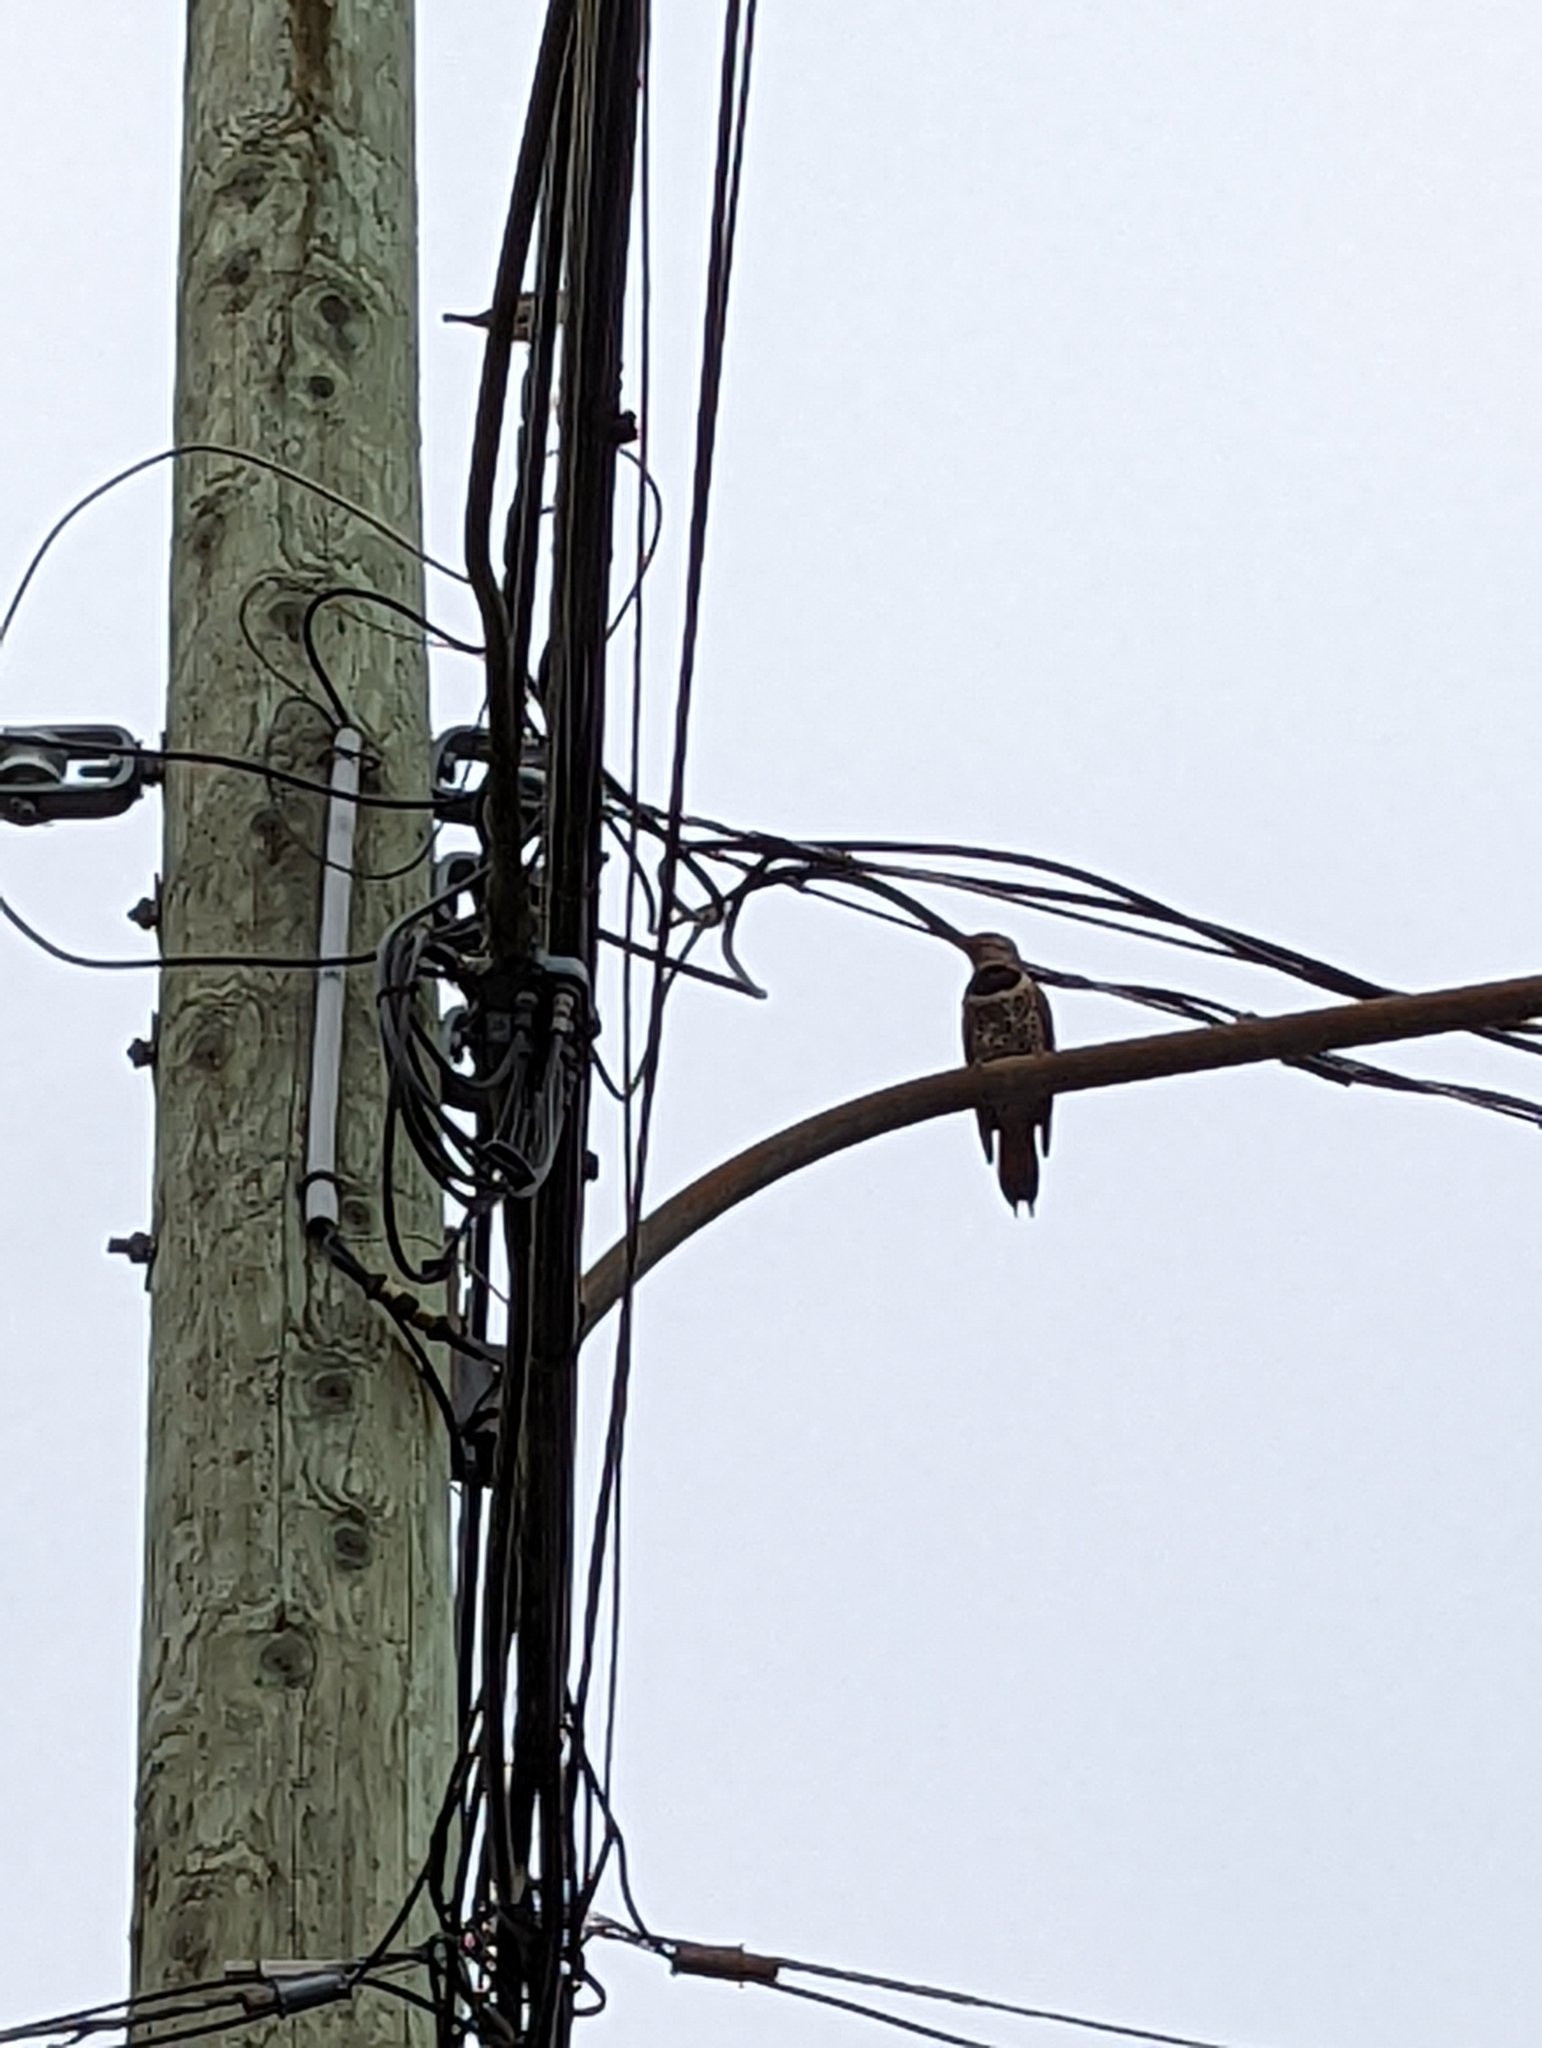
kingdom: Animalia
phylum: Chordata
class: Aves
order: Piciformes
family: Picidae
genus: Colaptes
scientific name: Colaptes auratus
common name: Northern flicker
